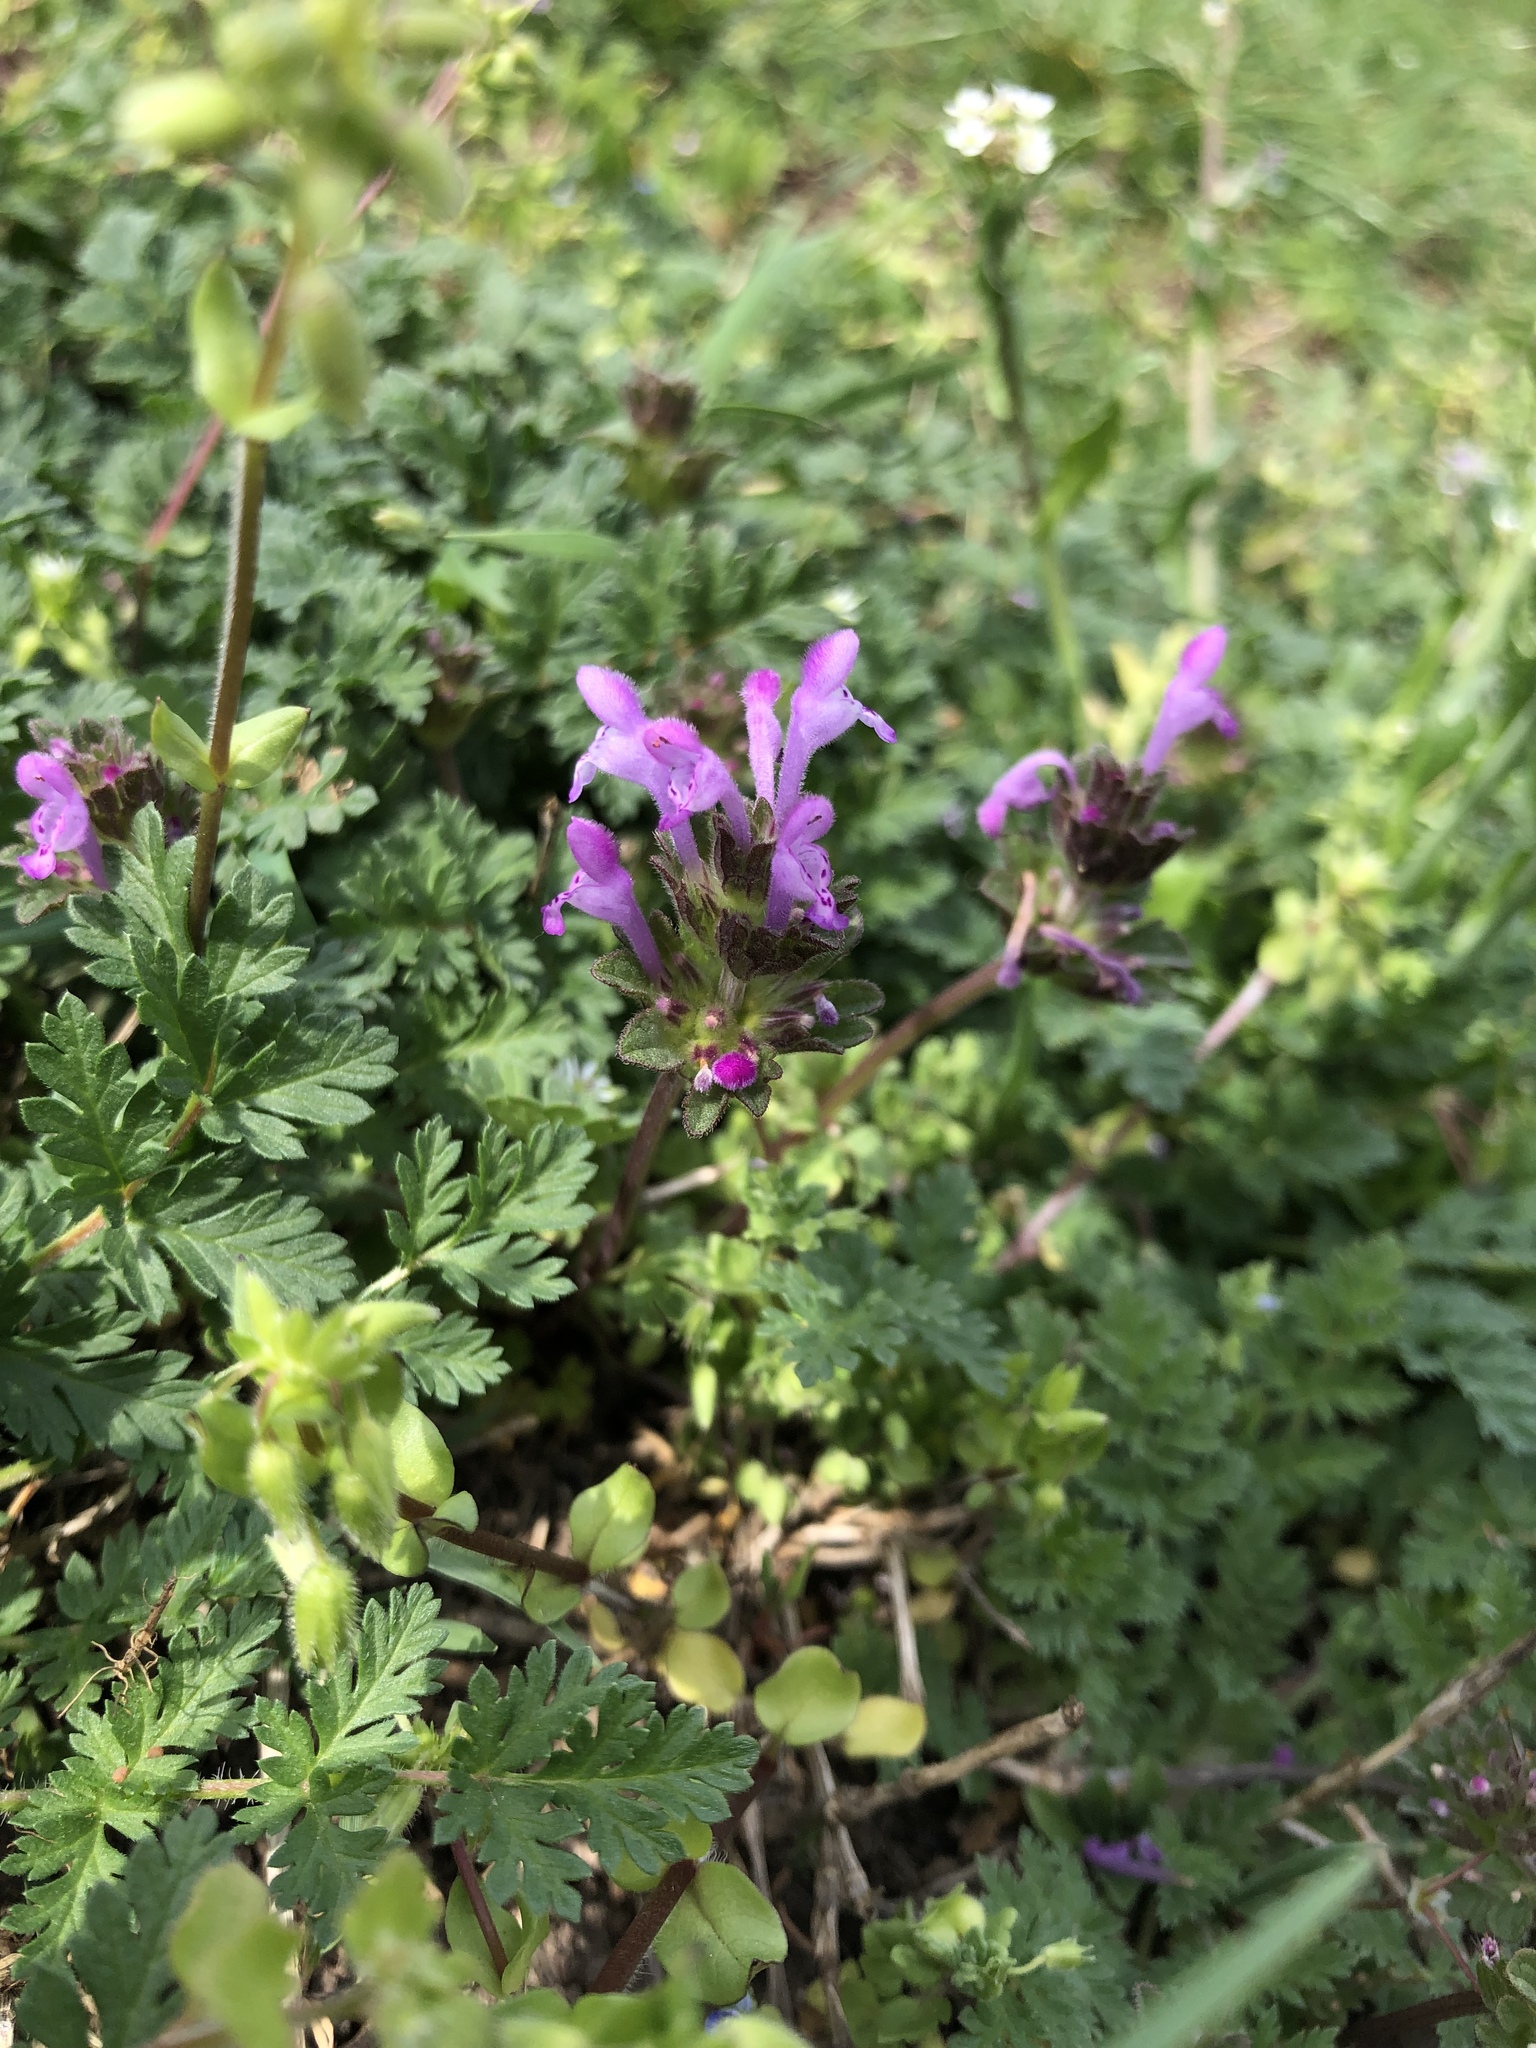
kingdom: Plantae
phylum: Tracheophyta
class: Magnoliopsida
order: Lamiales
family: Lamiaceae
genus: Lamium
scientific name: Lamium amplexicaule
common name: Henbit dead-nettle
